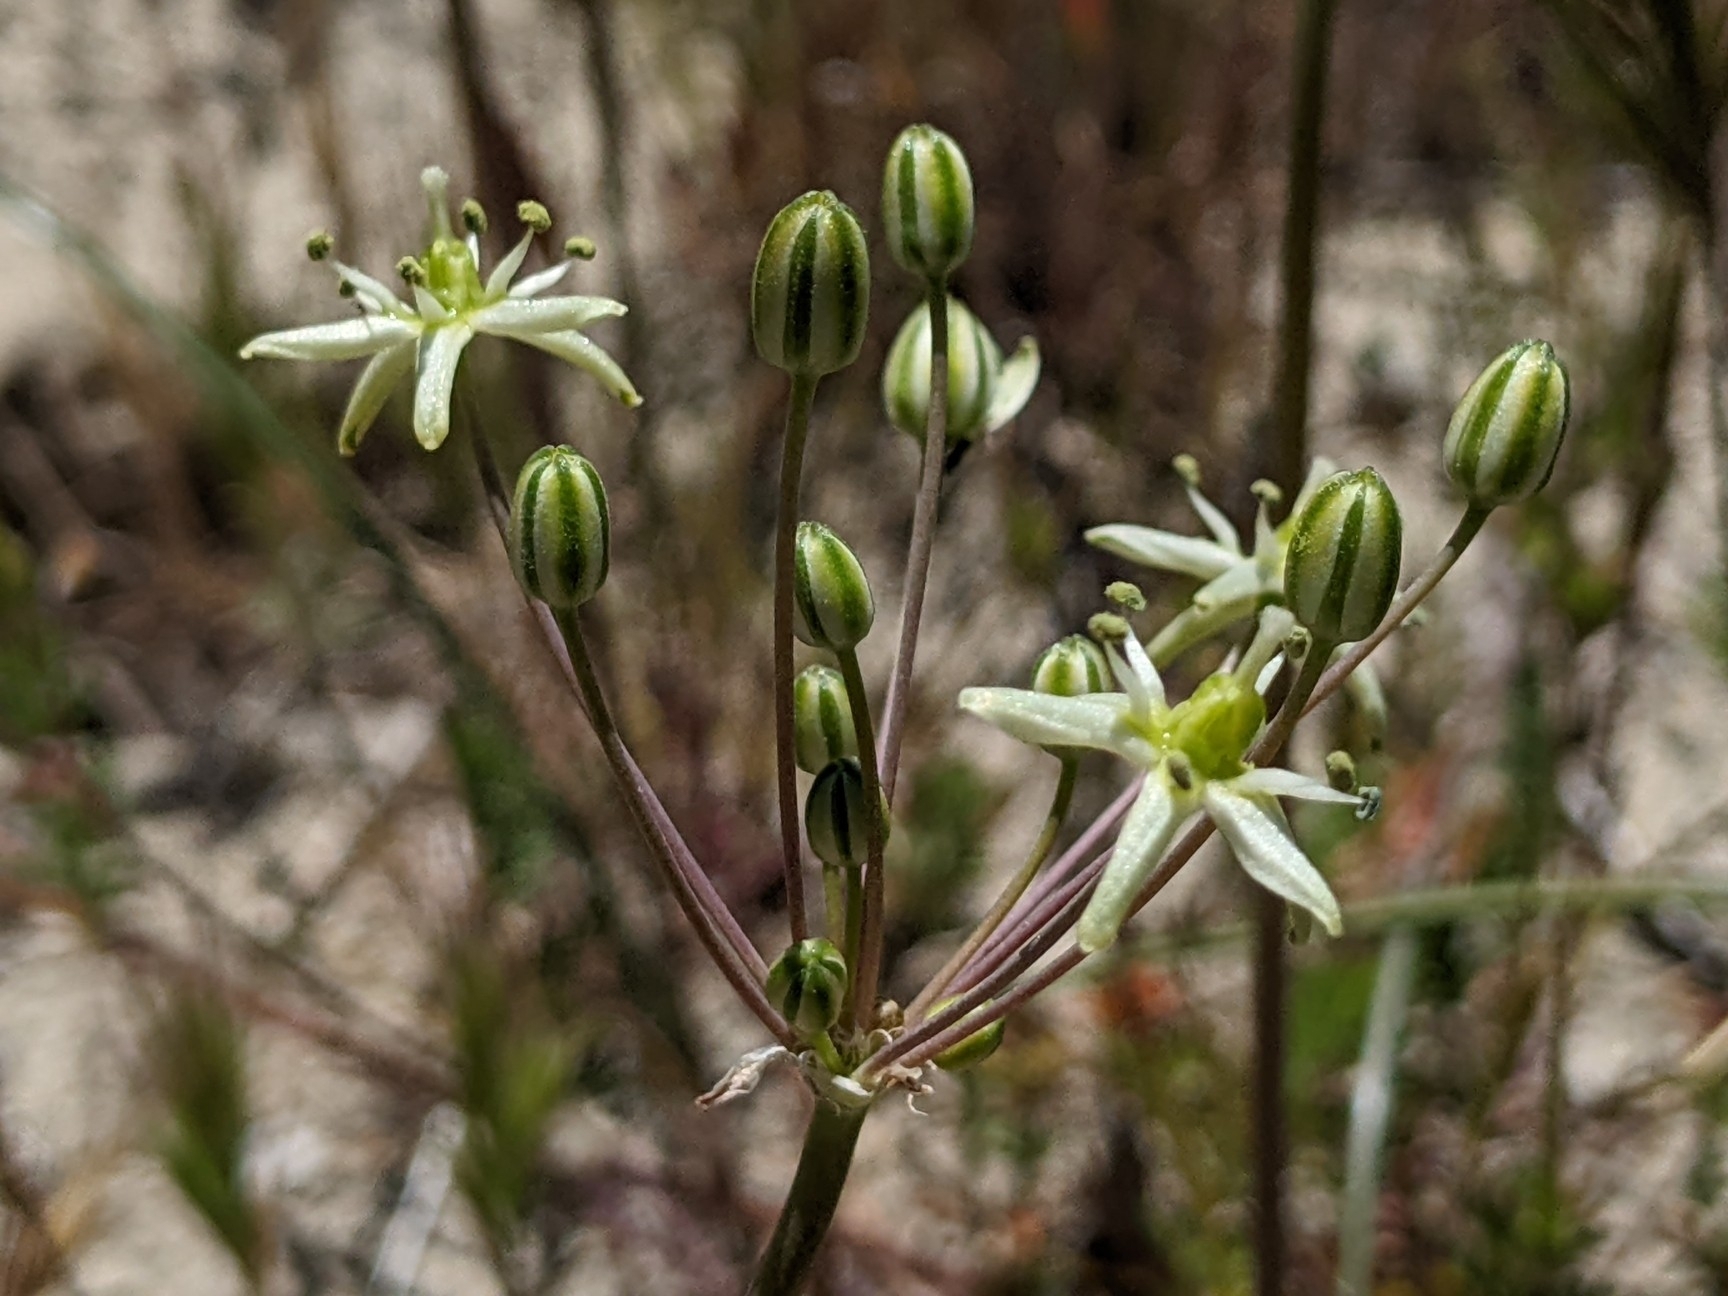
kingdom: Plantae
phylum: Tracheophyta
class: Liliopsida
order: Asparagales
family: Asparagaceae
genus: Muilla
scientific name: Muilla maritima
